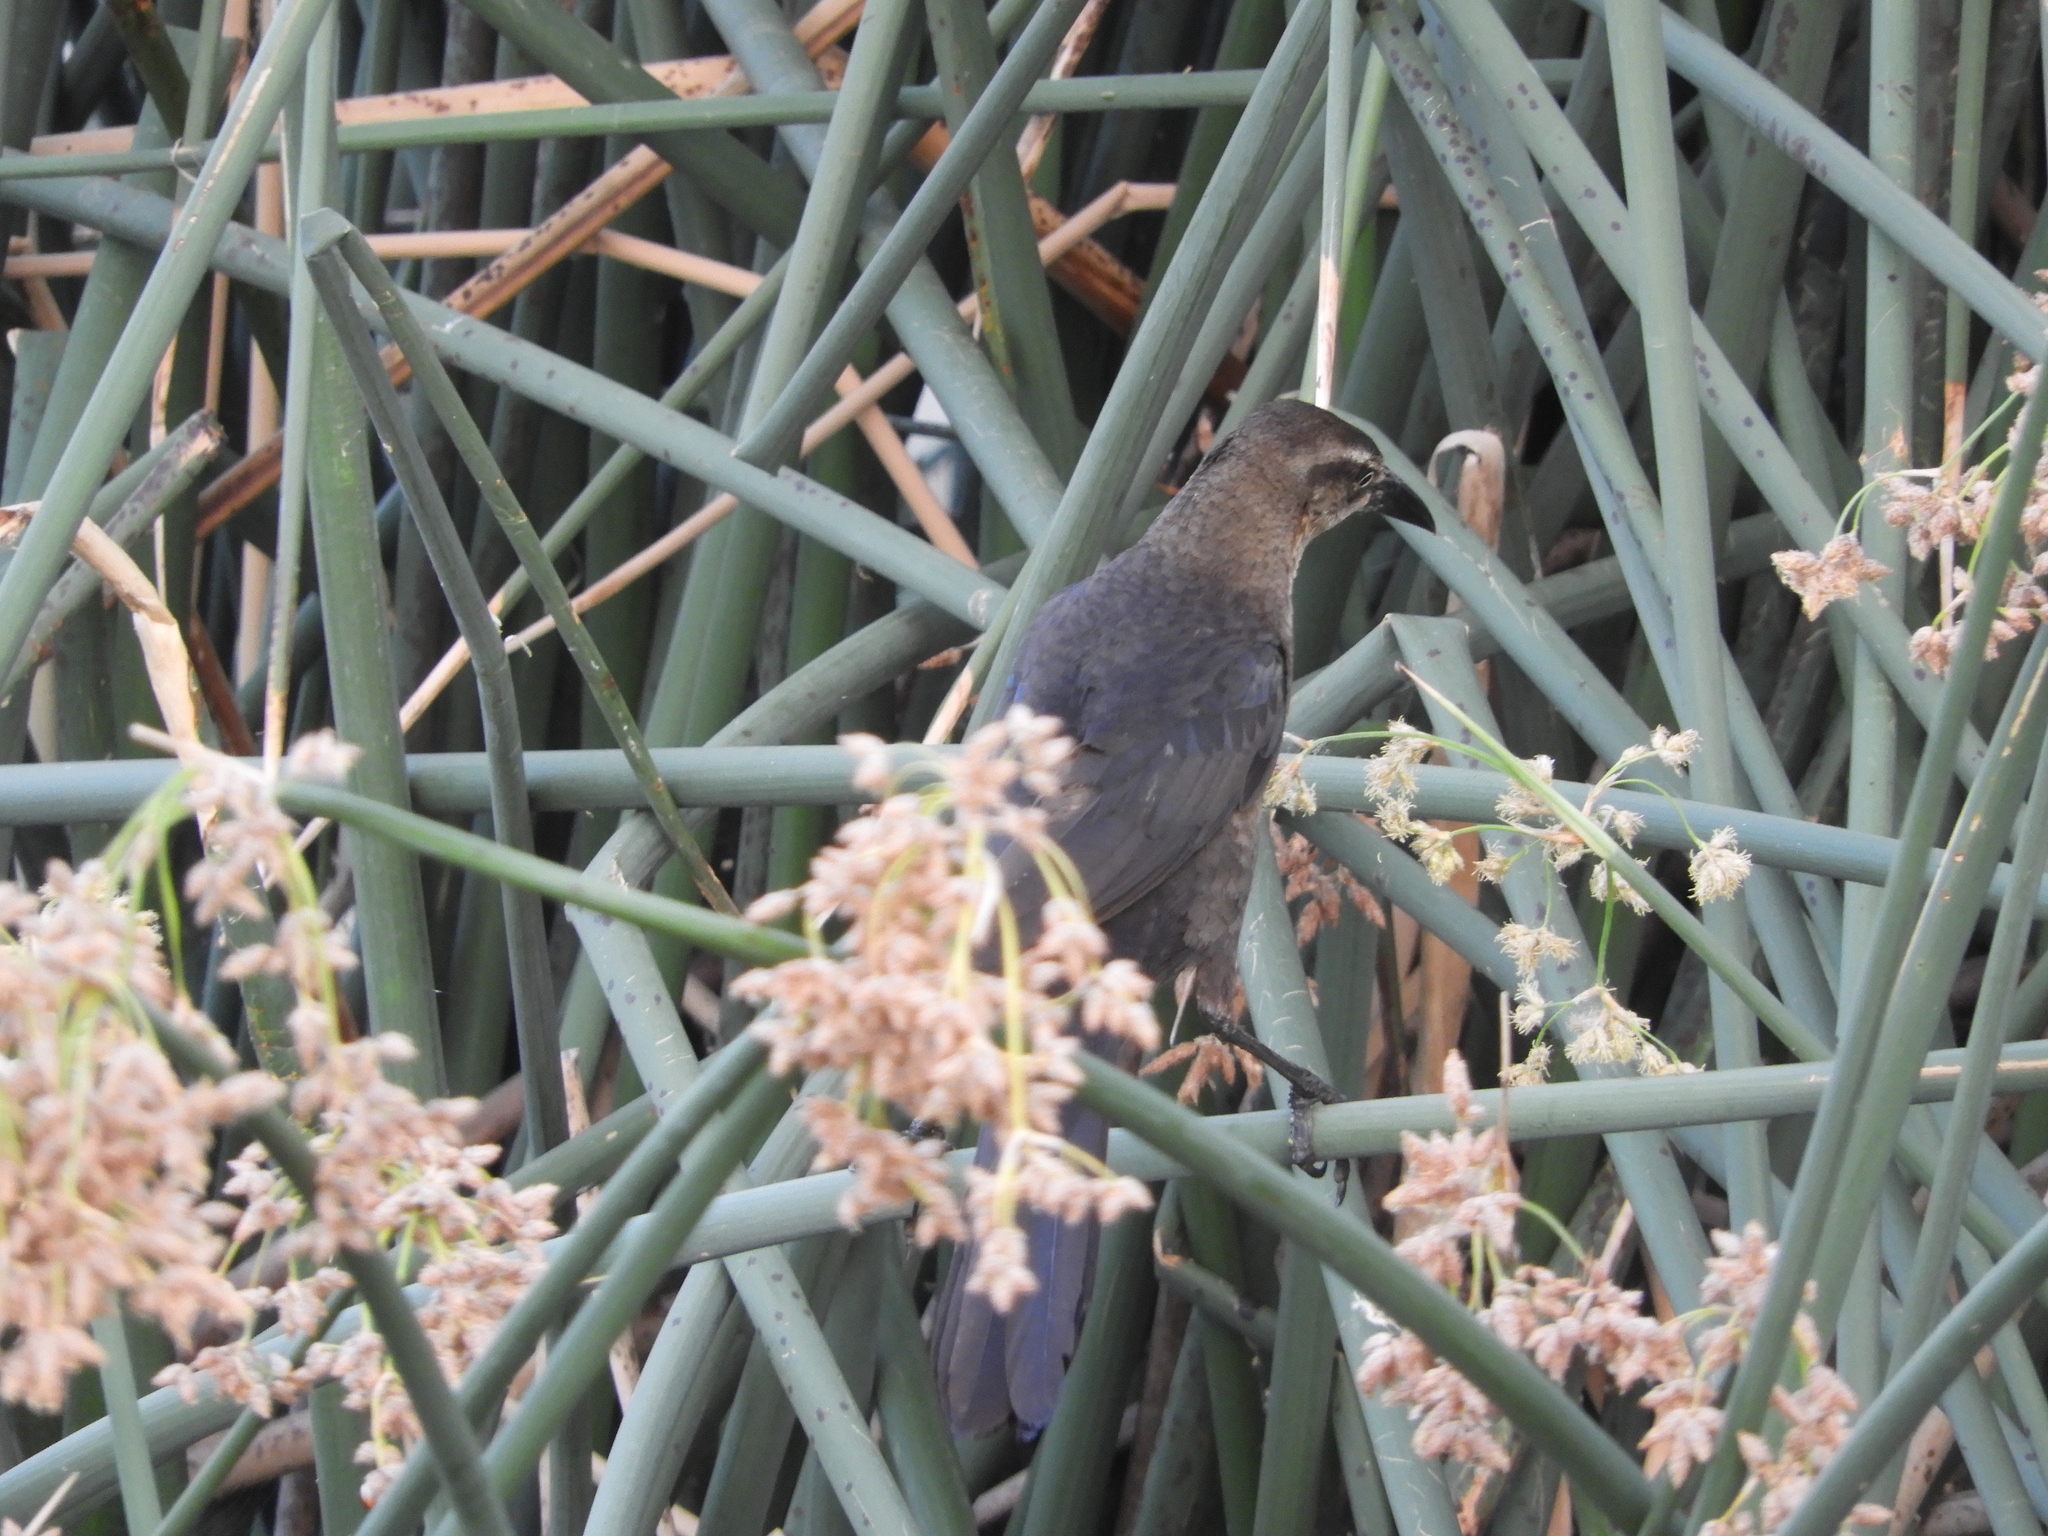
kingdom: Animalia
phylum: Chordata
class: Aves
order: Passeriformes
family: Icteridae
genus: Quiscalus
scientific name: Quiscalus mexicanus
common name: Great-tailed grackle
